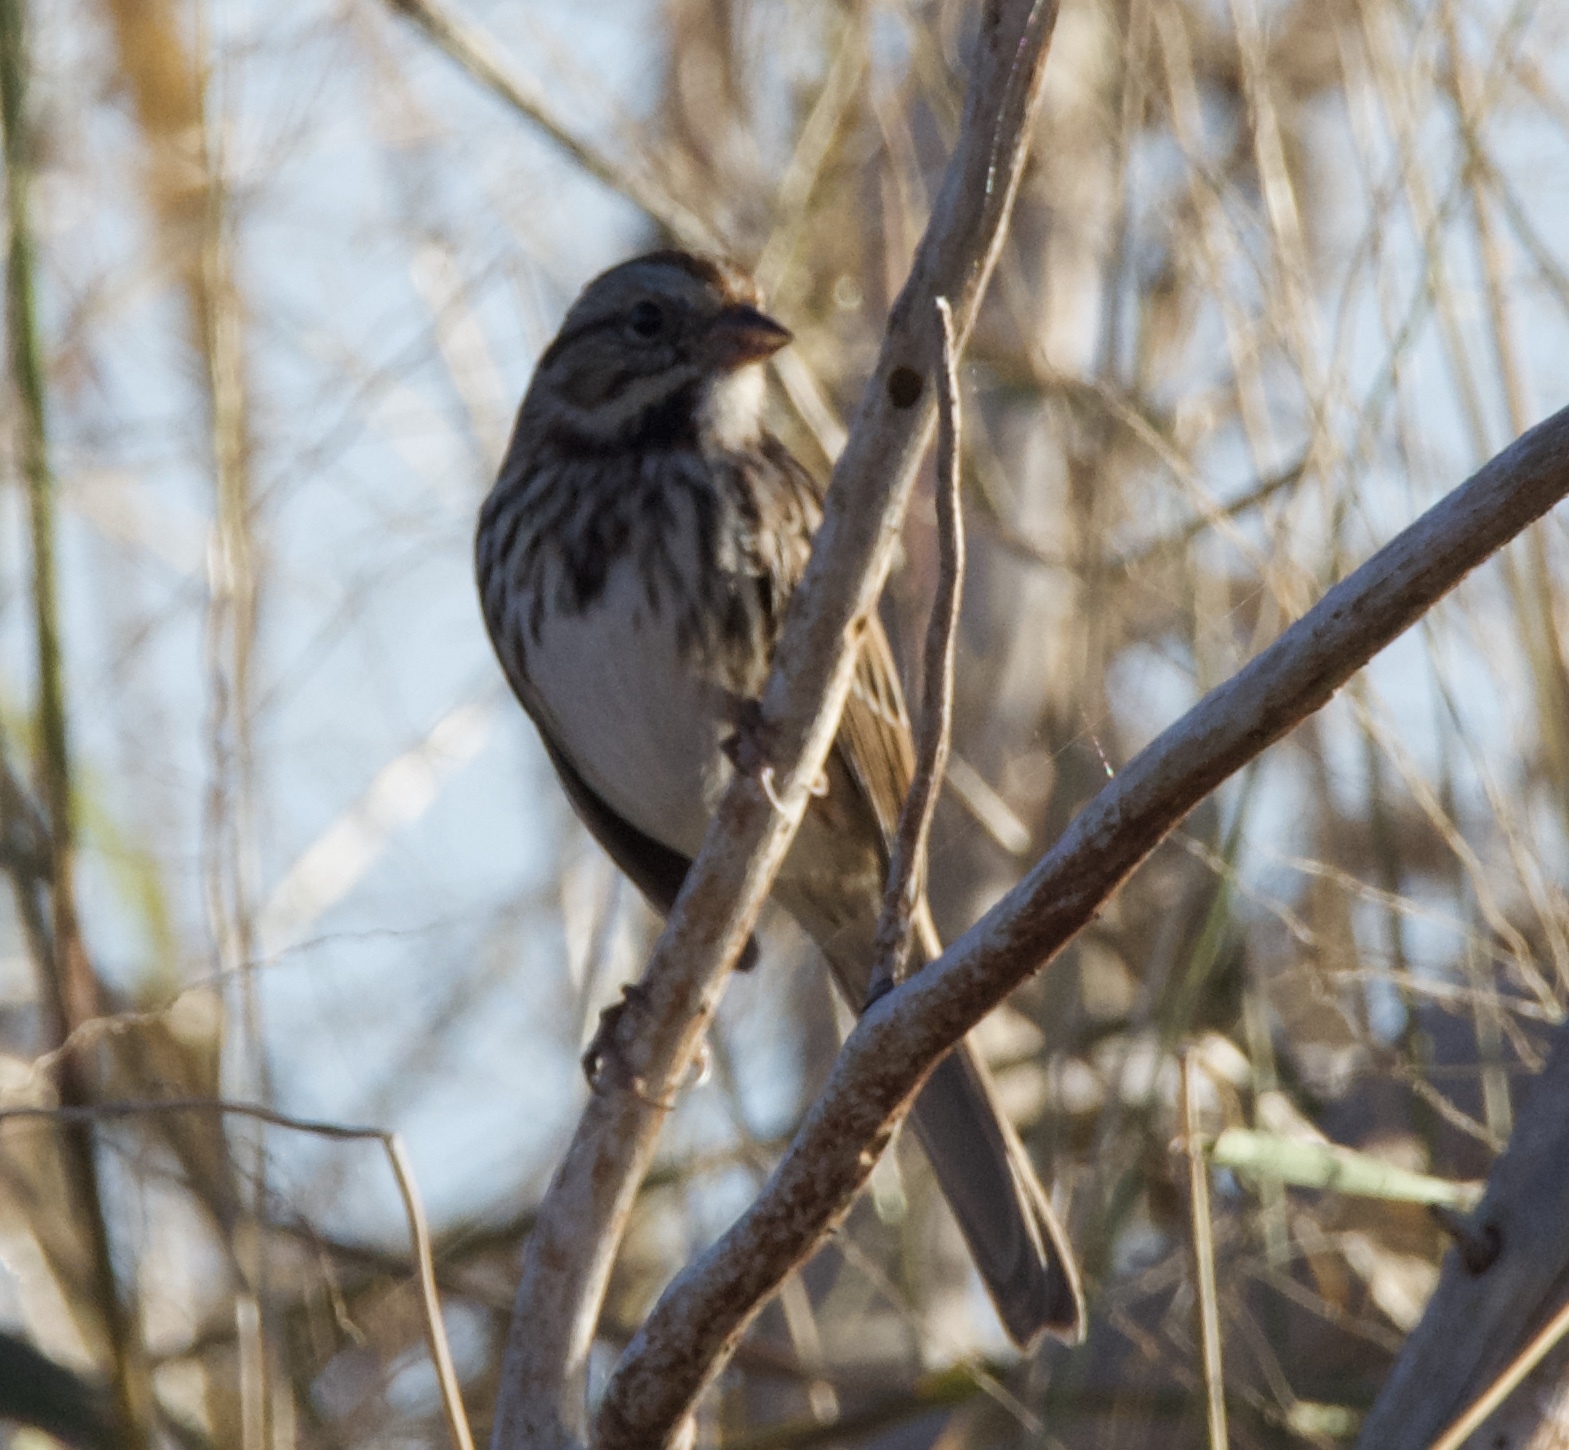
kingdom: Animalia
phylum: Chordata
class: Aves
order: Passeriformes
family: Passerellidae
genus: Melospiza
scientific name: Melospiza melodia
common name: Song sparrow
